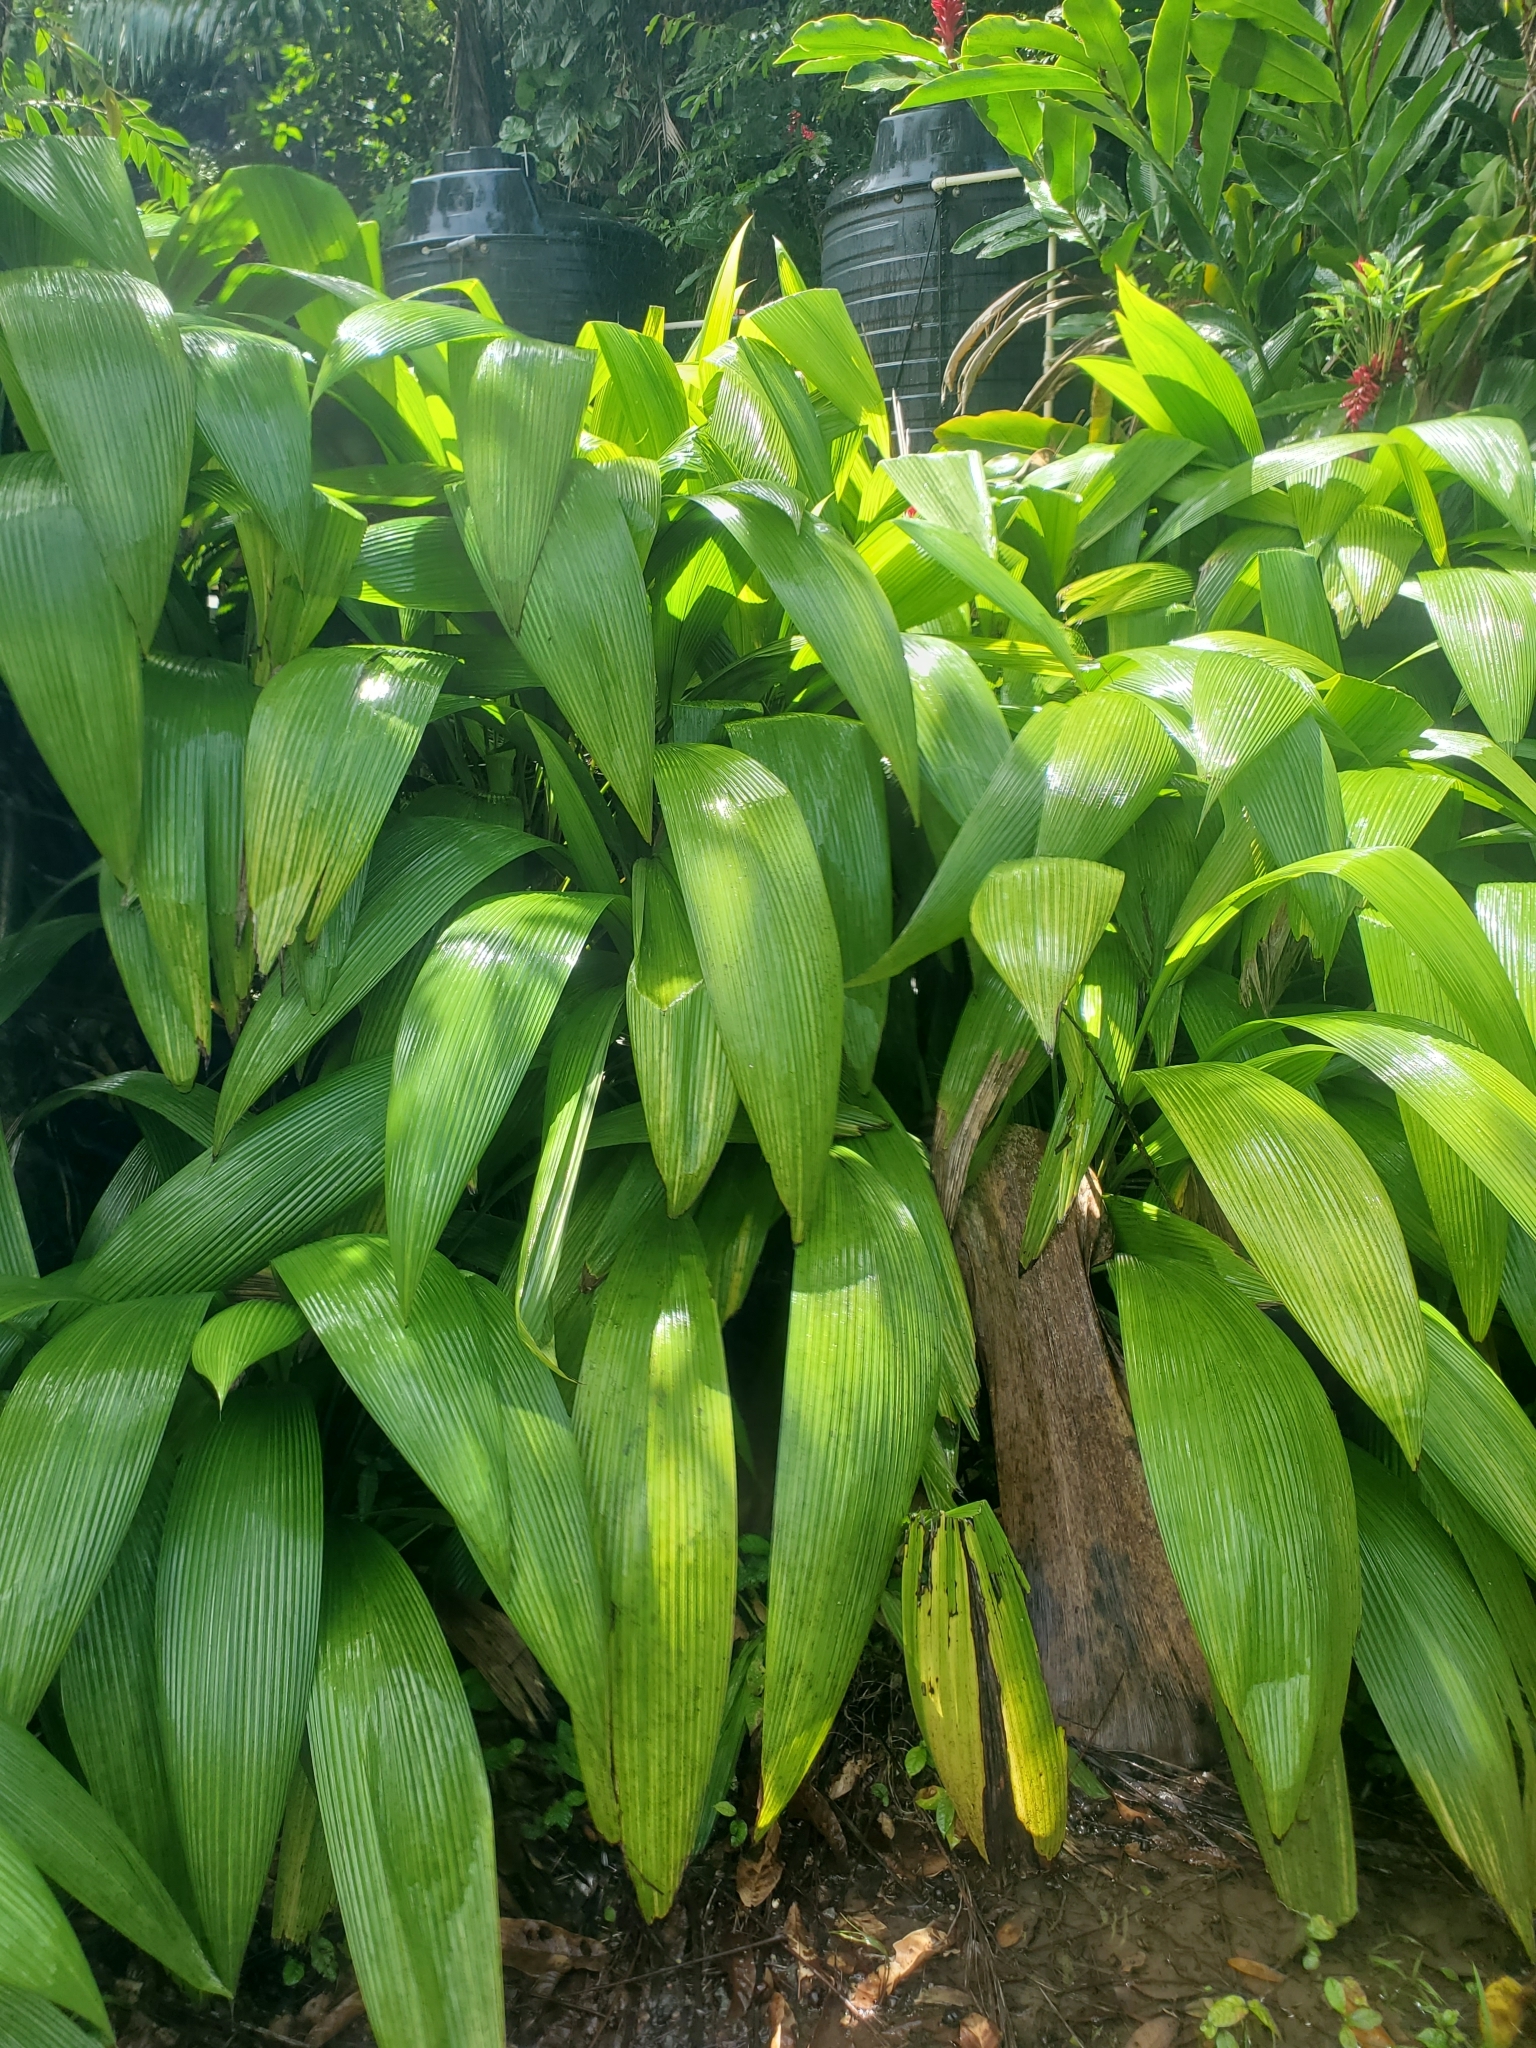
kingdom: Plantae
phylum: Tracheophyta
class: Liliopsida
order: Asparagales
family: Hypoxidaceae
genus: Curculigo
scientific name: Curculigo capitulata
